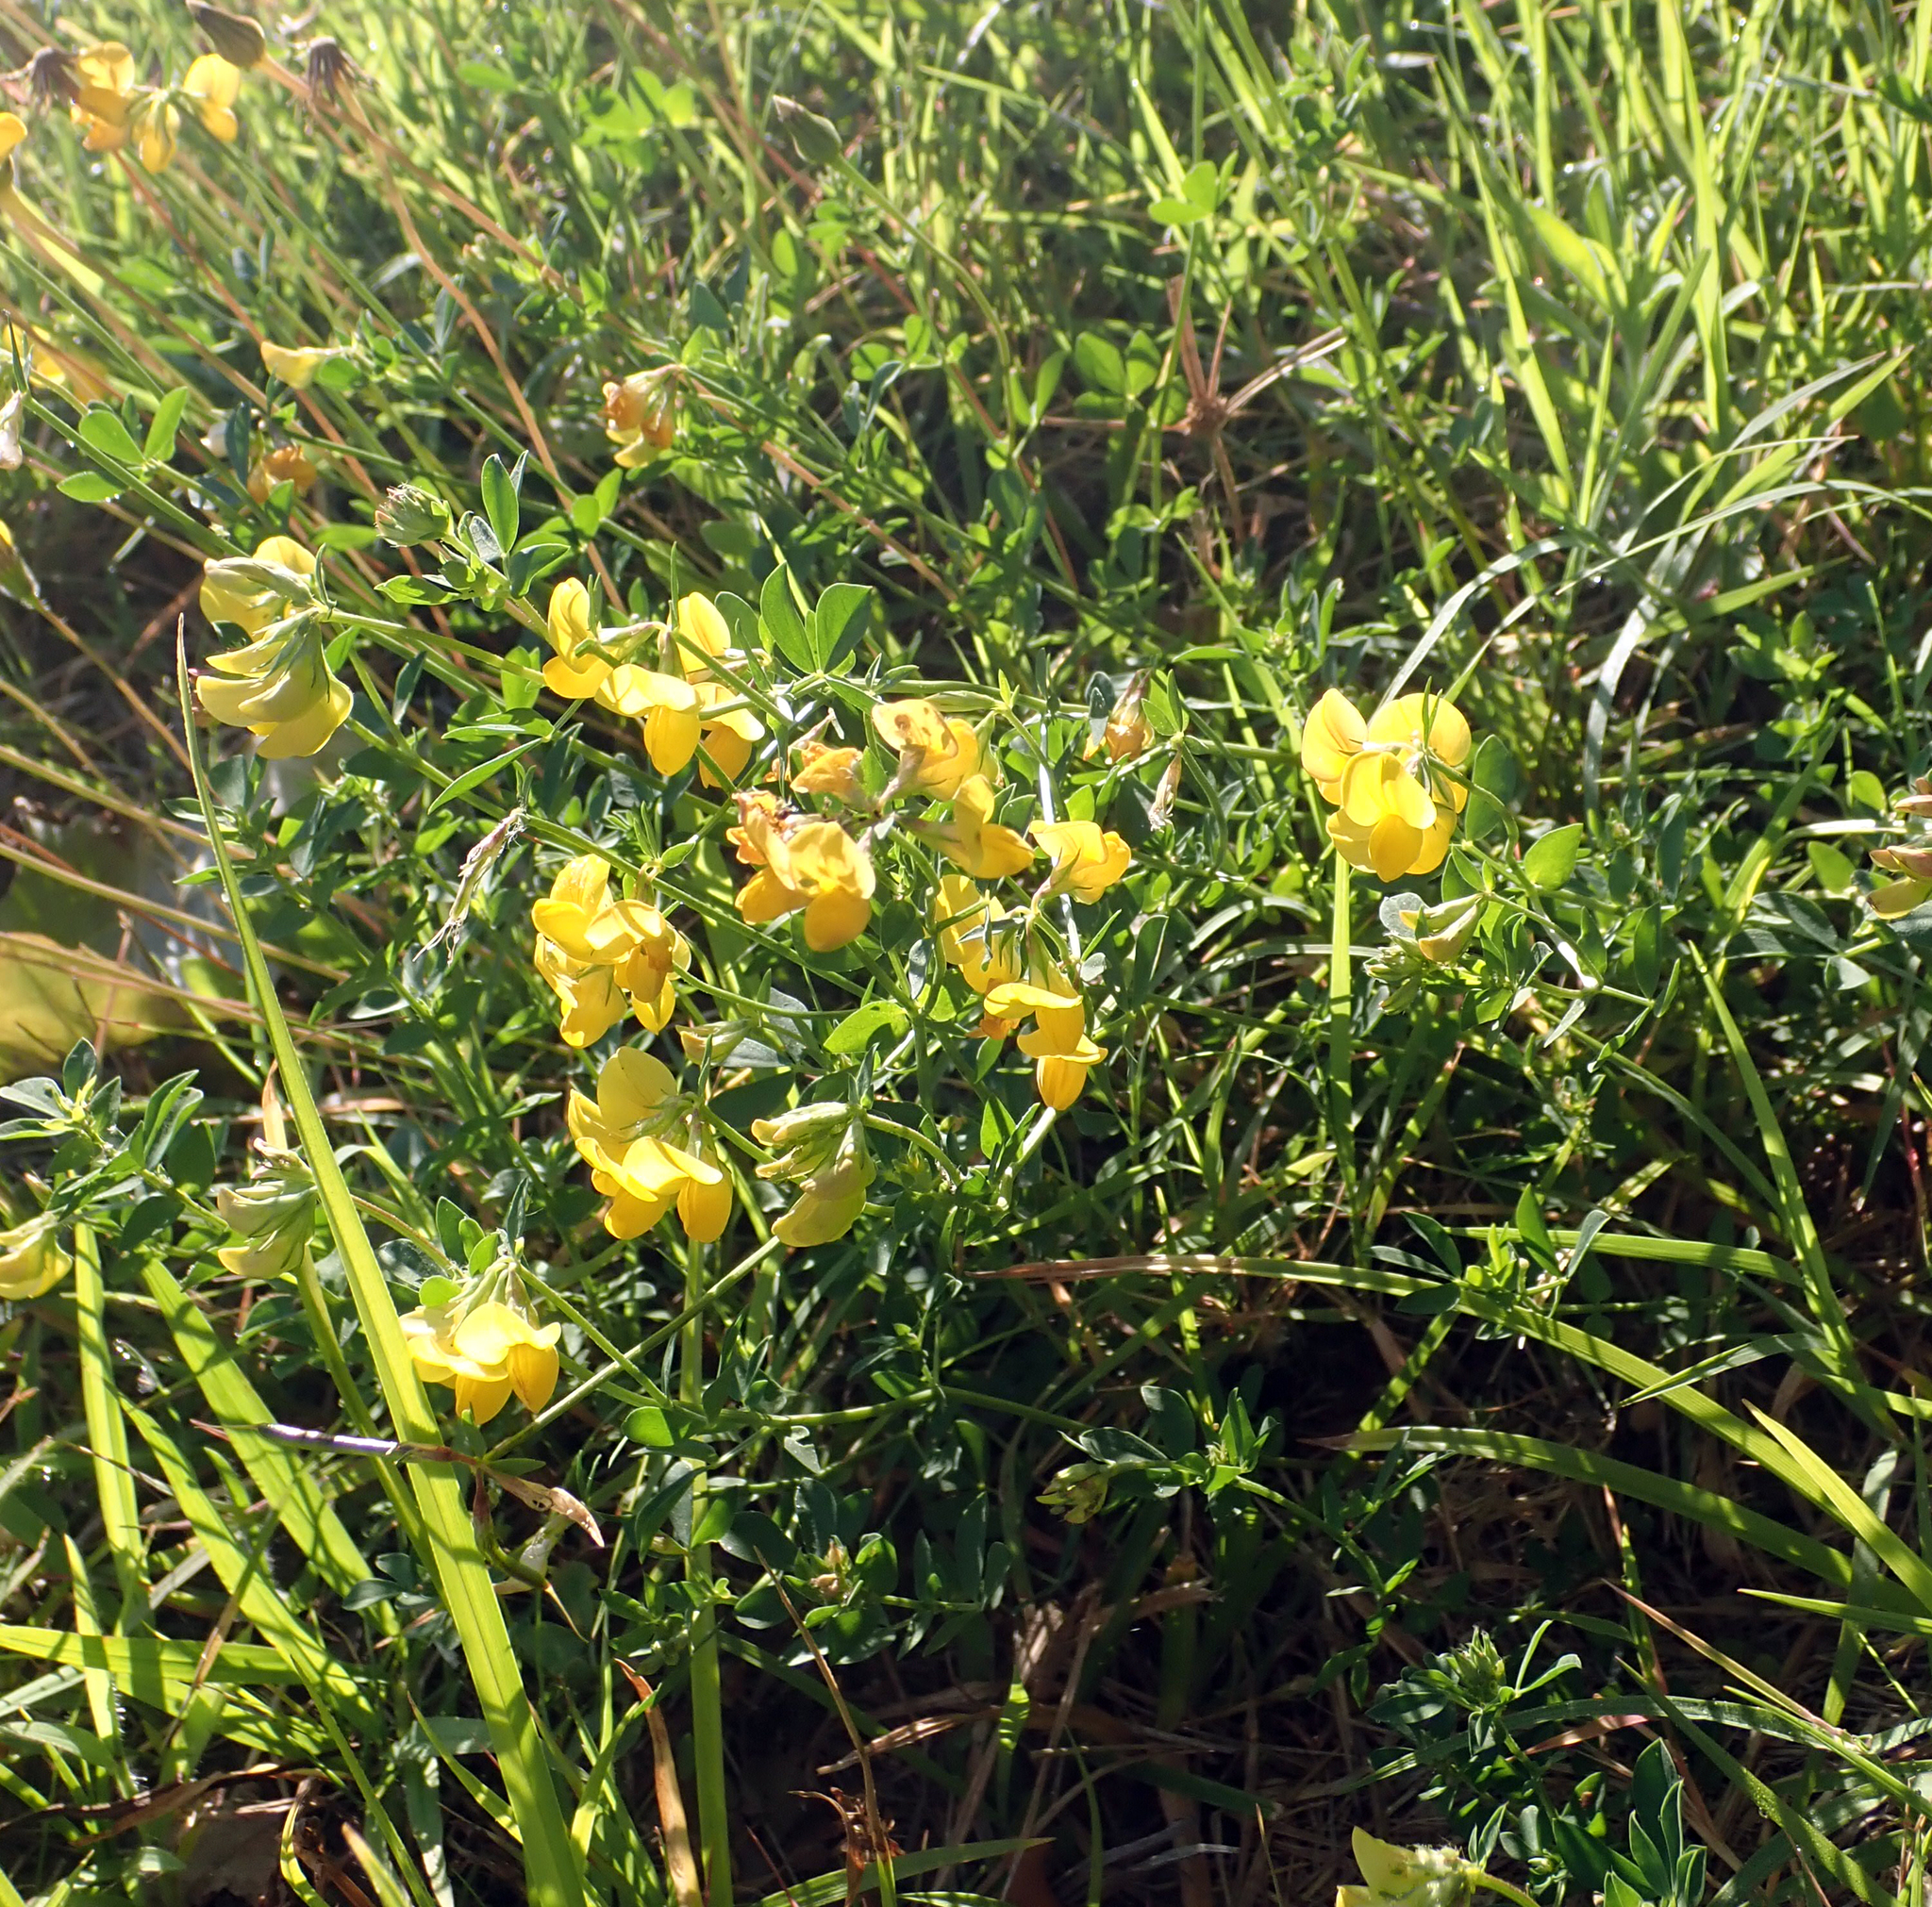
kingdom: Plantae
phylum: Tracheophyta
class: Magnoliopsida
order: Fabales
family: Fabaceae
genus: Lotus
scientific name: Lotus pedunculatus
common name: Greater birdsfoot-trefoil
